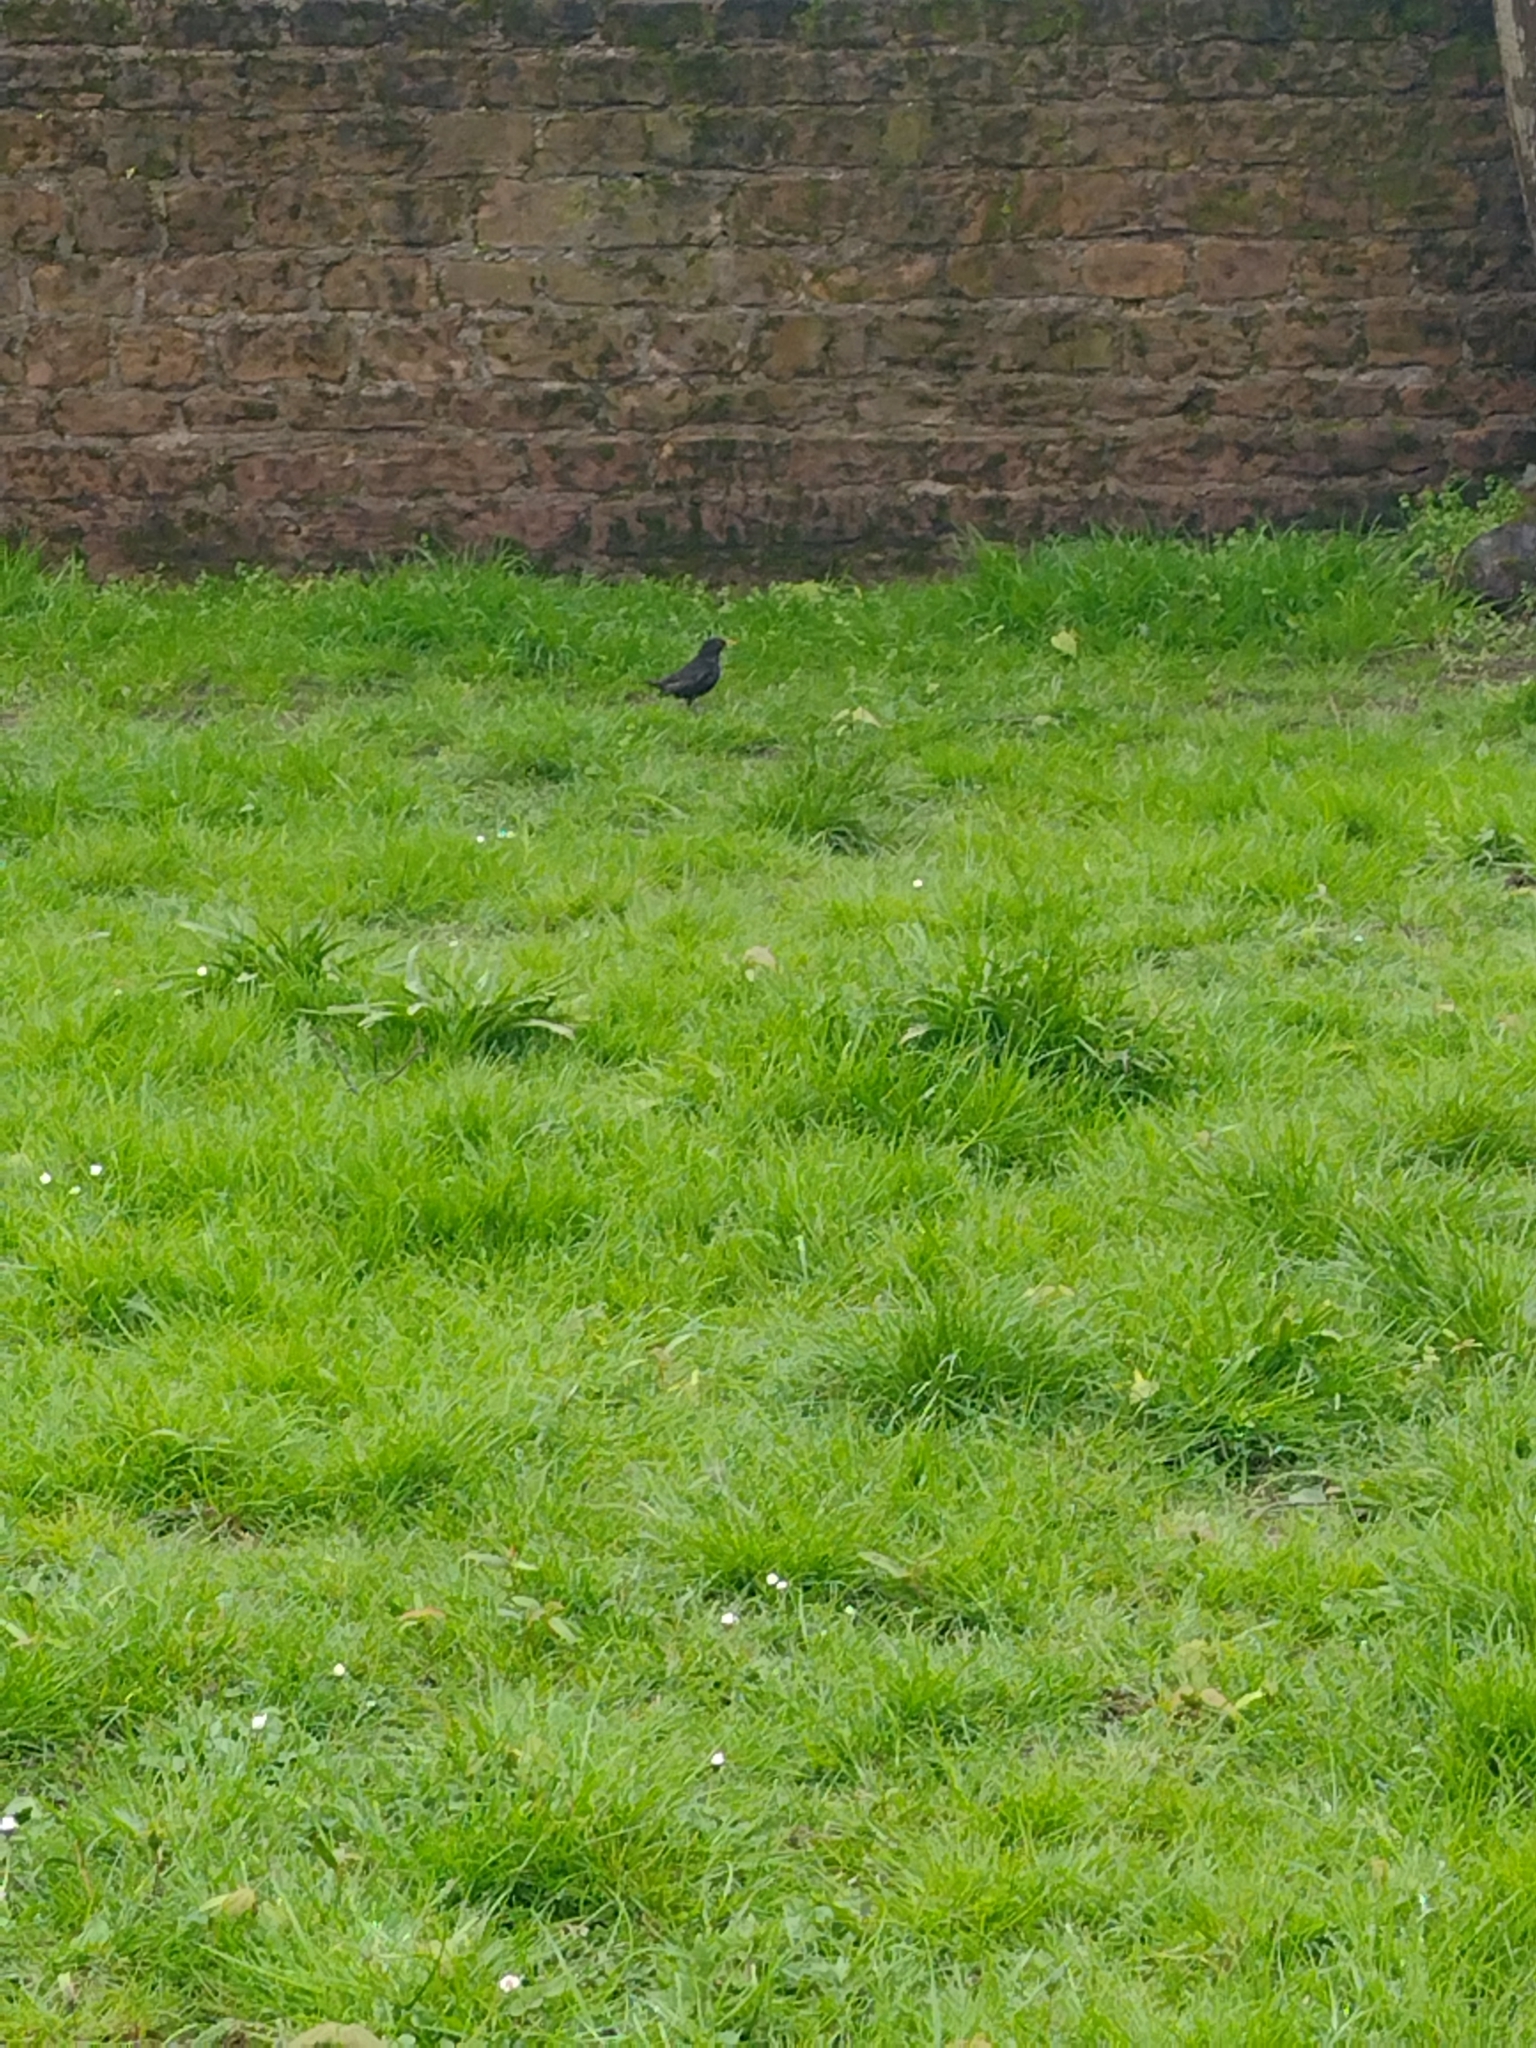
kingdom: Animalia
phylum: Chordata
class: Aves
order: Passeriformes
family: Turdidae
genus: Turdus
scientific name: Turdus merula
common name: Common blackbird
